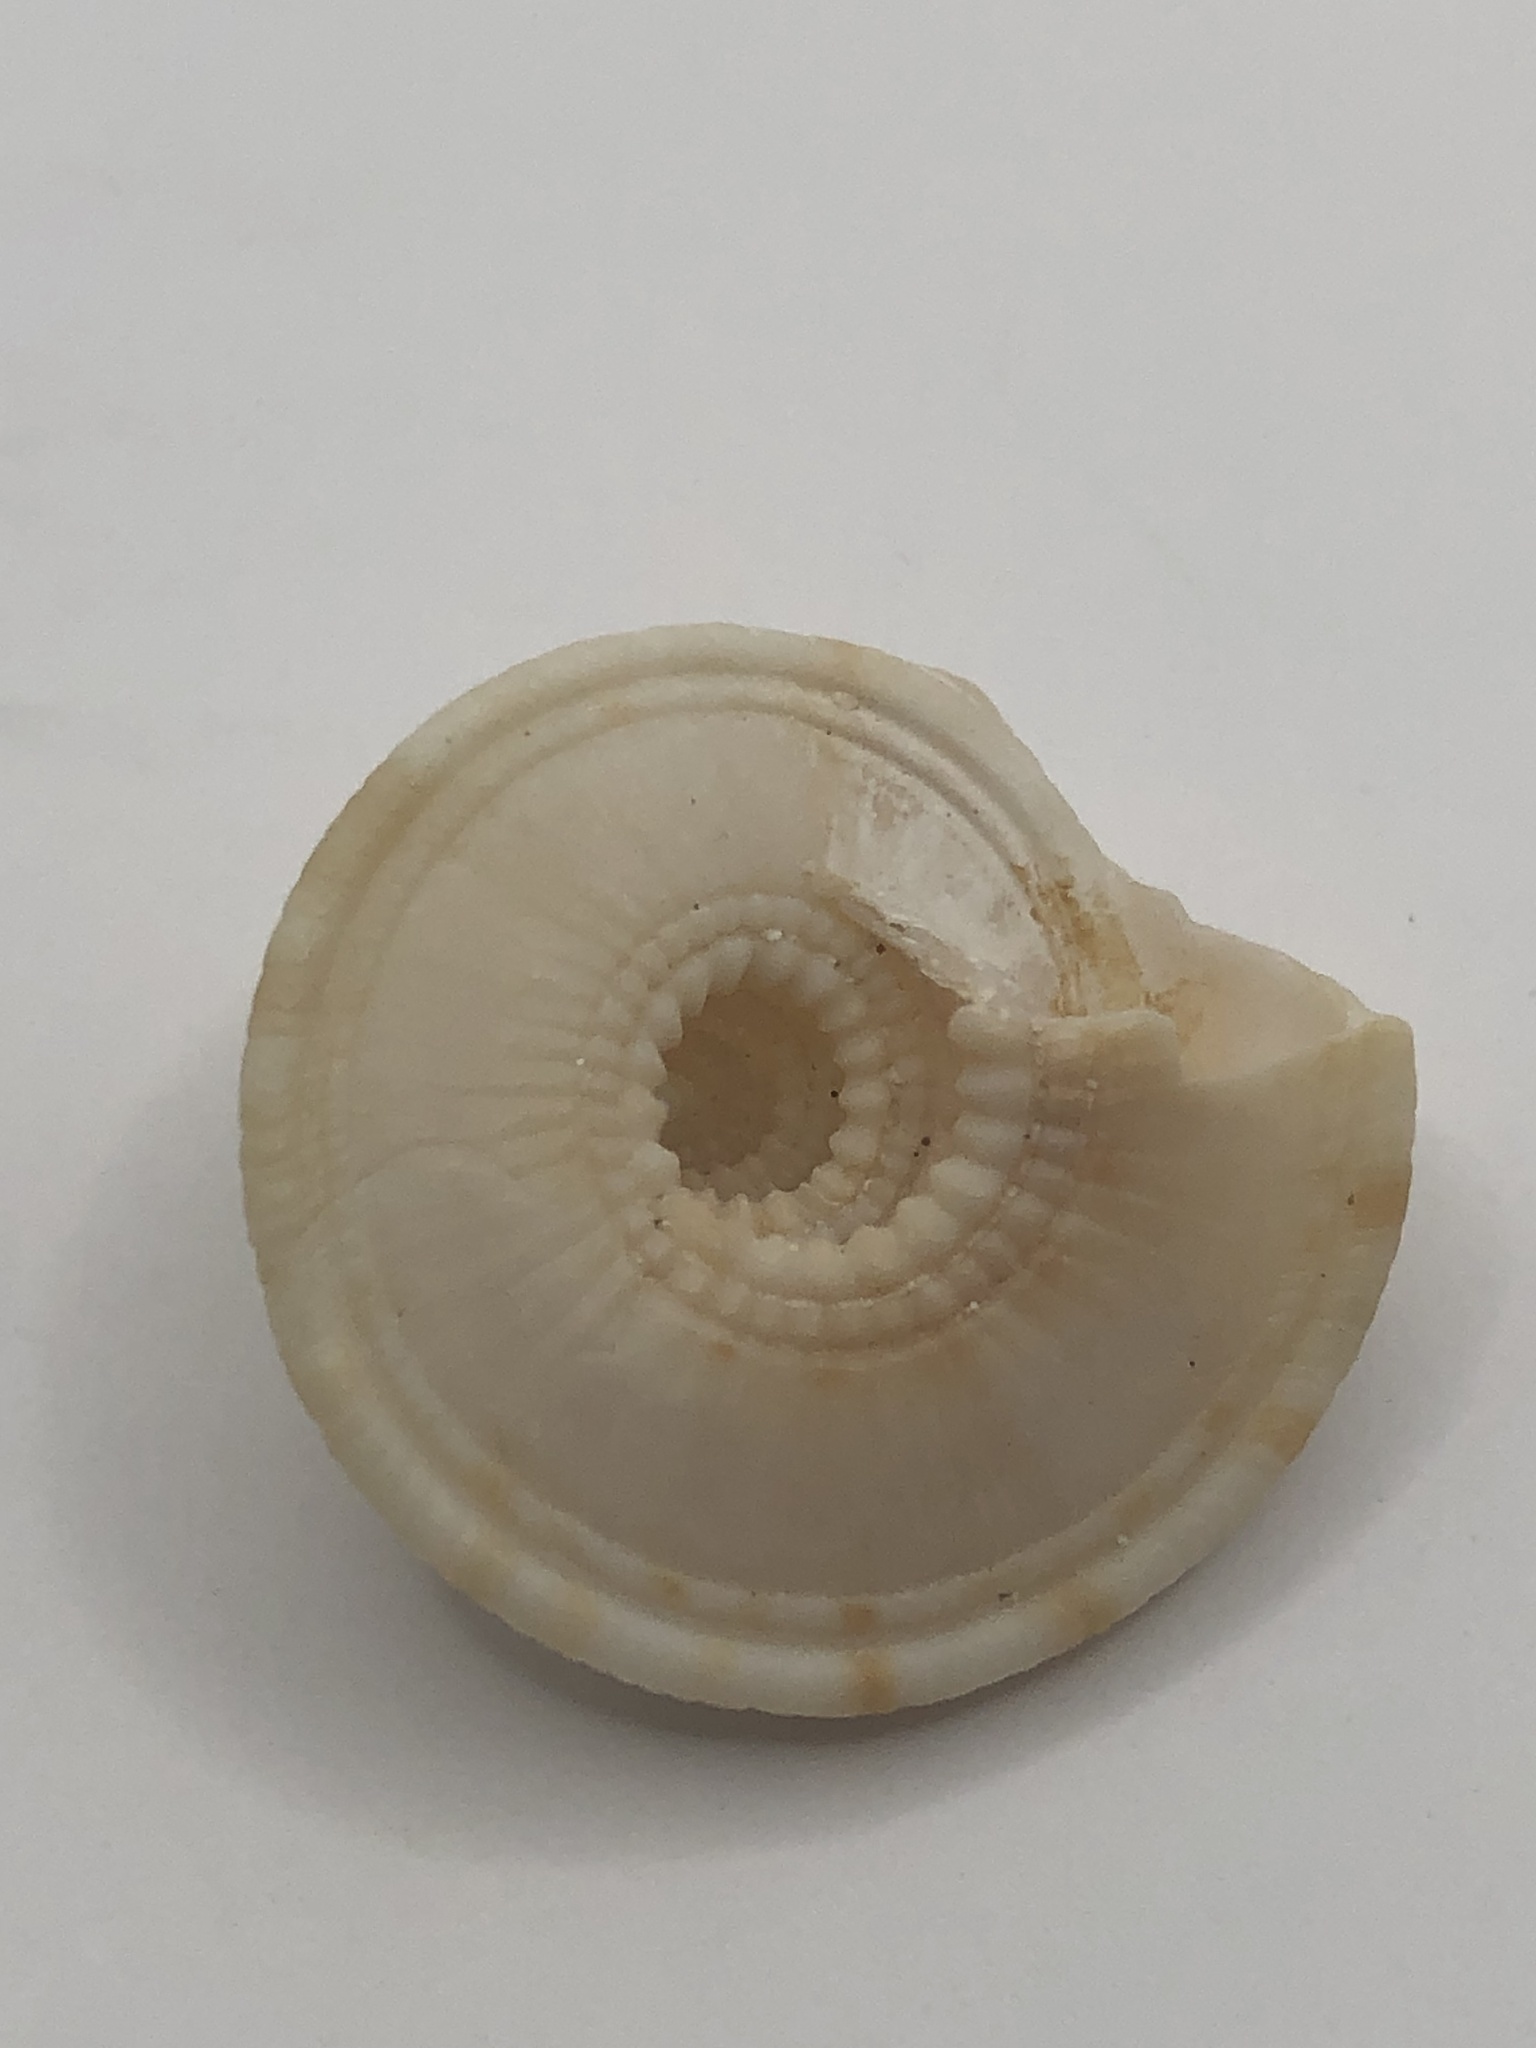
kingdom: Animalia
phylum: Mollusca
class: Gastropoda
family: Architectonicidae
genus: Architectonica
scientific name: Architectonica nobilis
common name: Common sundial
